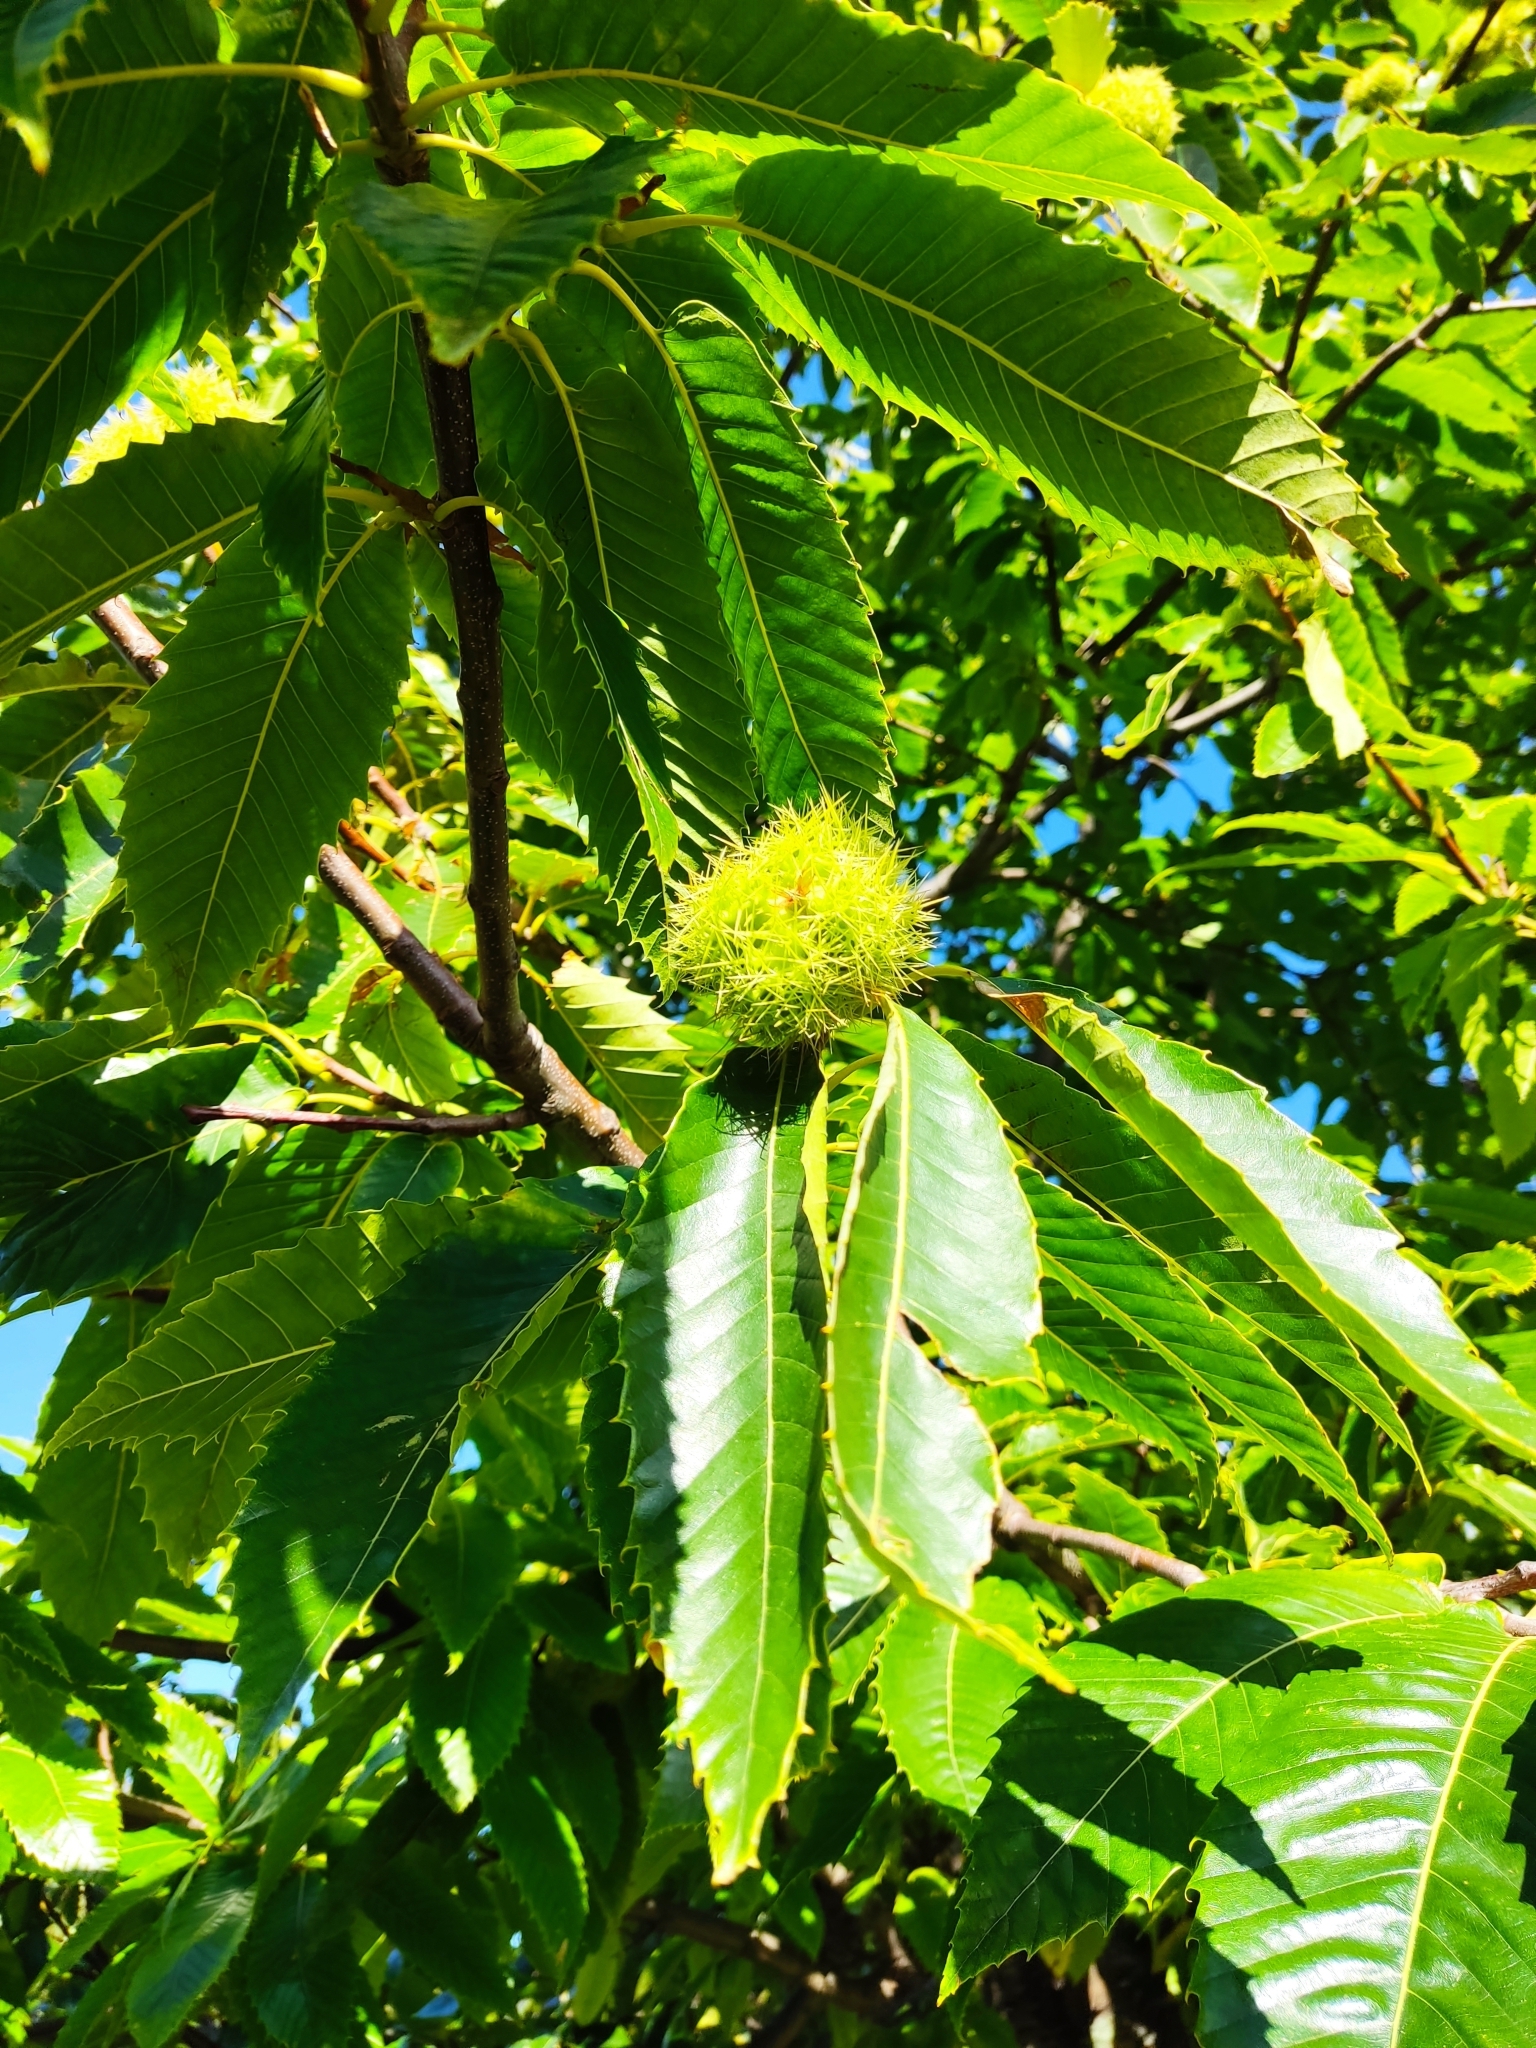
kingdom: Plantae
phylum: Tracheophyta
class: Magnoliopsida
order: Fagales
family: Fagaceae
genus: Castanea
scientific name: Castanea sativa
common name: Sweet chestnut
